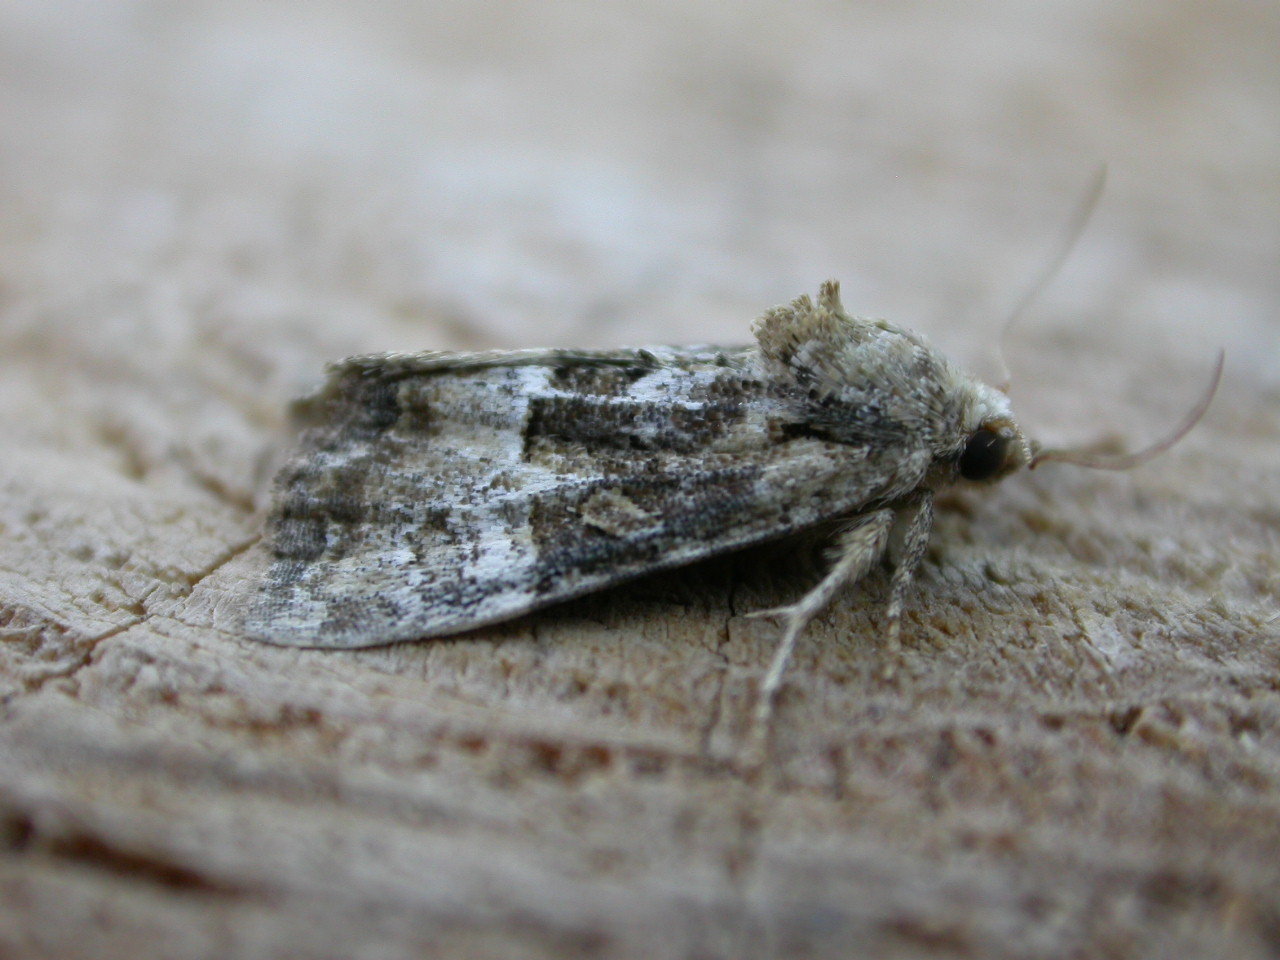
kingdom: Animalia
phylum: Arthropoda
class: Insecta
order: Lepidoptera
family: Noctuidae
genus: Mesoligia
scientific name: Mesoligia furuncula
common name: Cloaked minor
